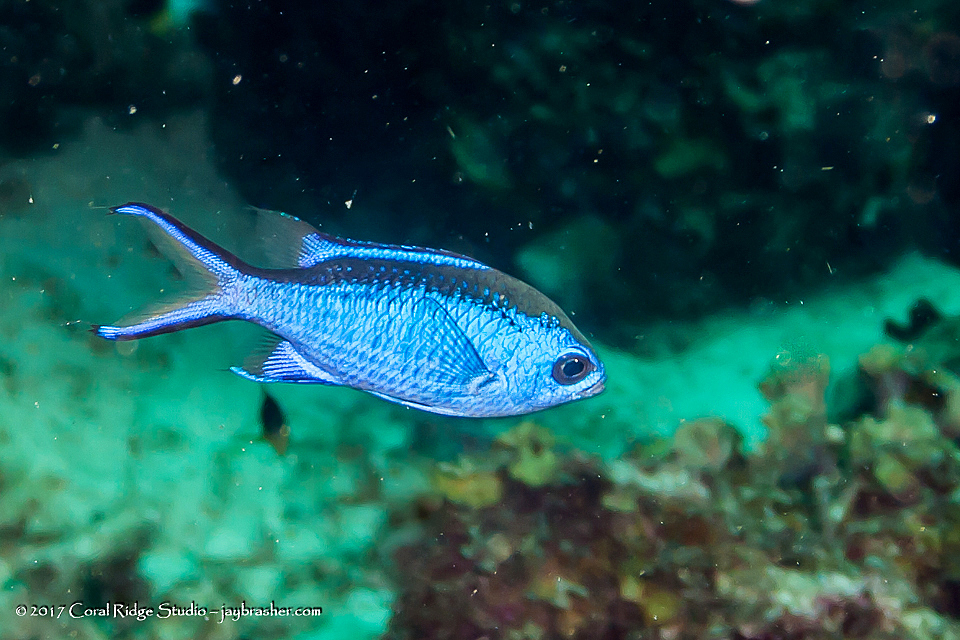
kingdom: Animalia
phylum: Chordata
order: Perciformes
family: Pomacentridae
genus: Chromis
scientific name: Chromis cyanea
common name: Blue chromis
